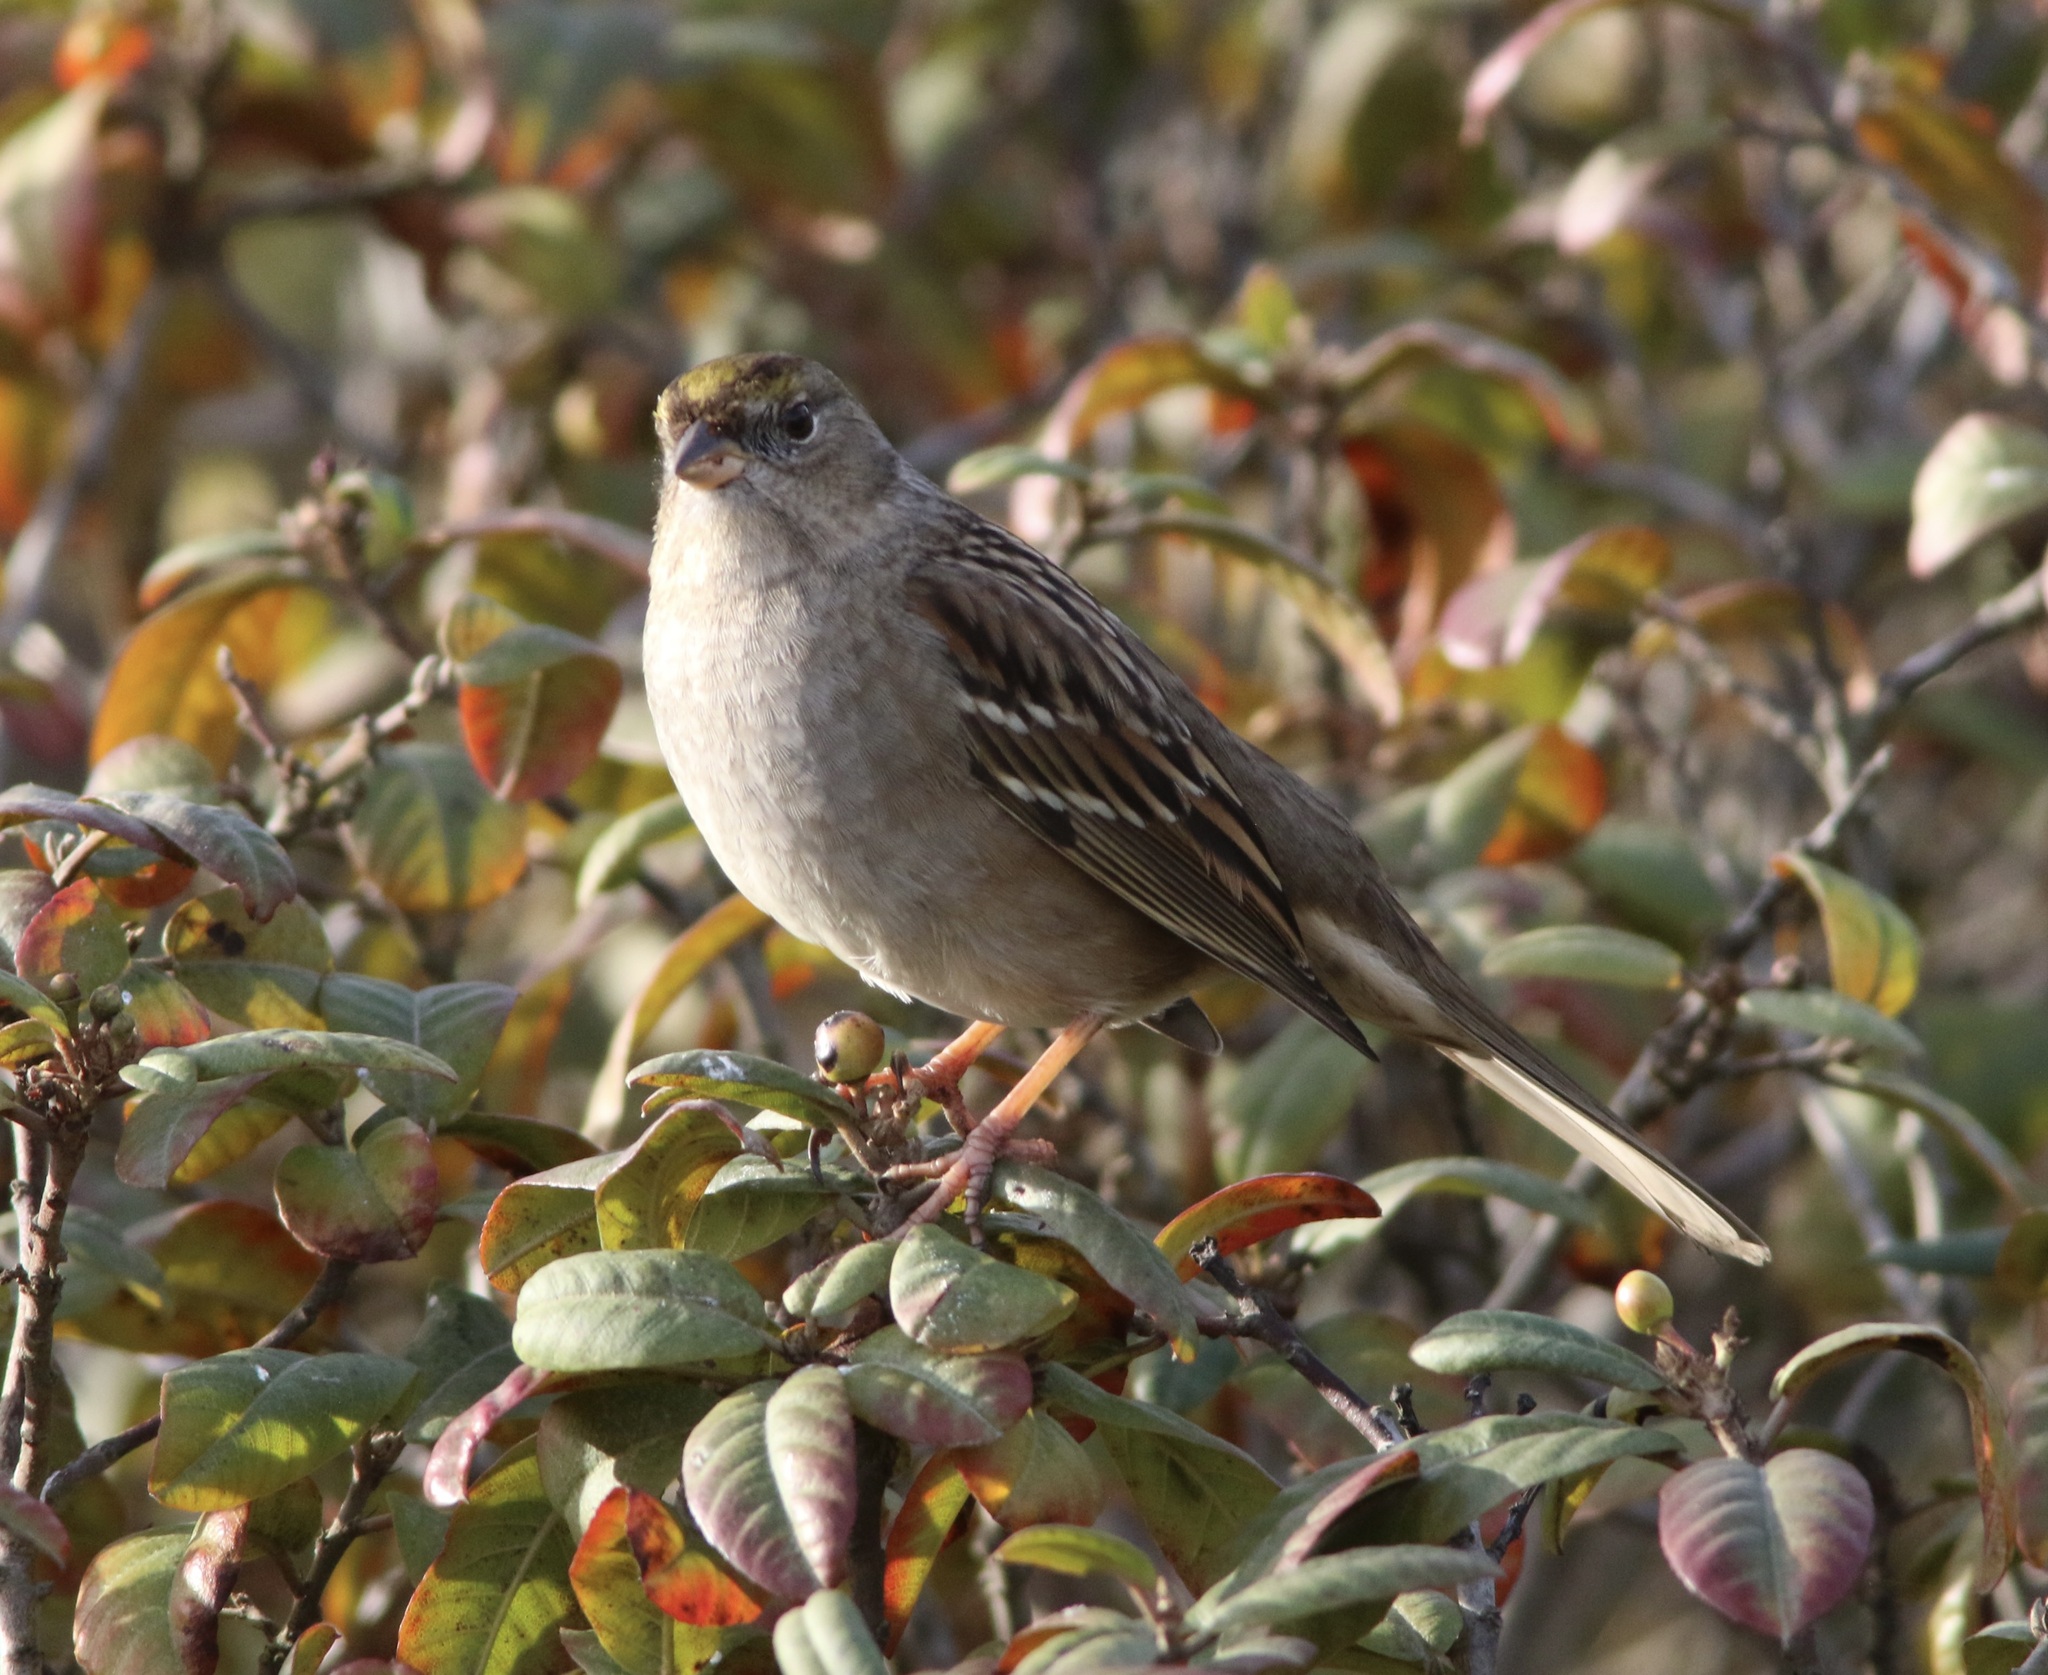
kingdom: Animalia
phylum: Chordata
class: Aves
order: Passeriformes
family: Passerellidae
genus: Zonotrichia
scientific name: Zonotrichia atricapilla
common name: Golden-crowned sparrow
